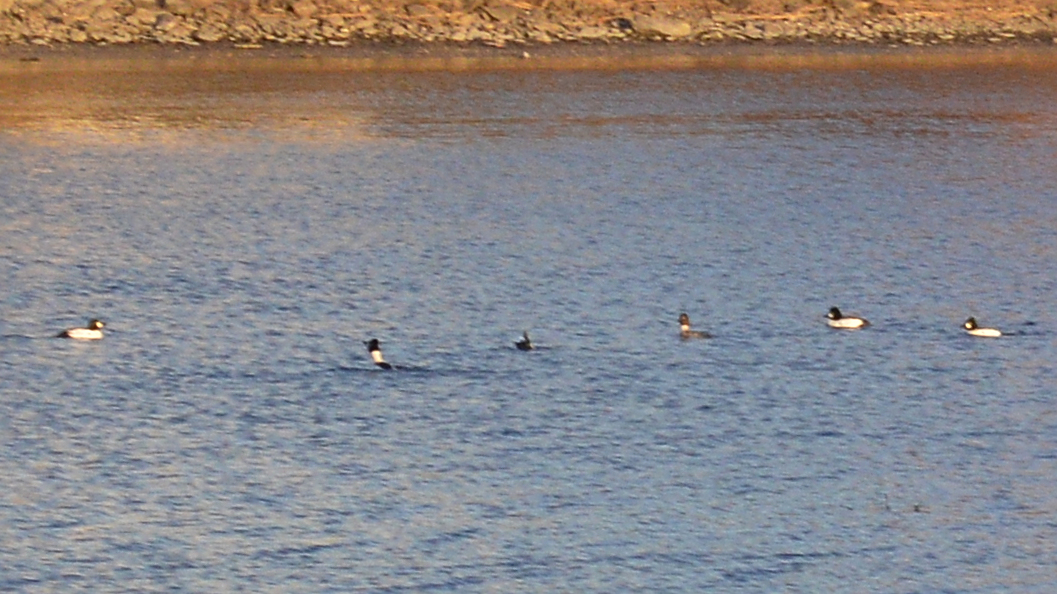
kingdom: Animalia
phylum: Chordata
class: Aves
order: Anseriformes
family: Anatidae
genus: Bucephala
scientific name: Bucephala clangula
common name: Common goldeneye
